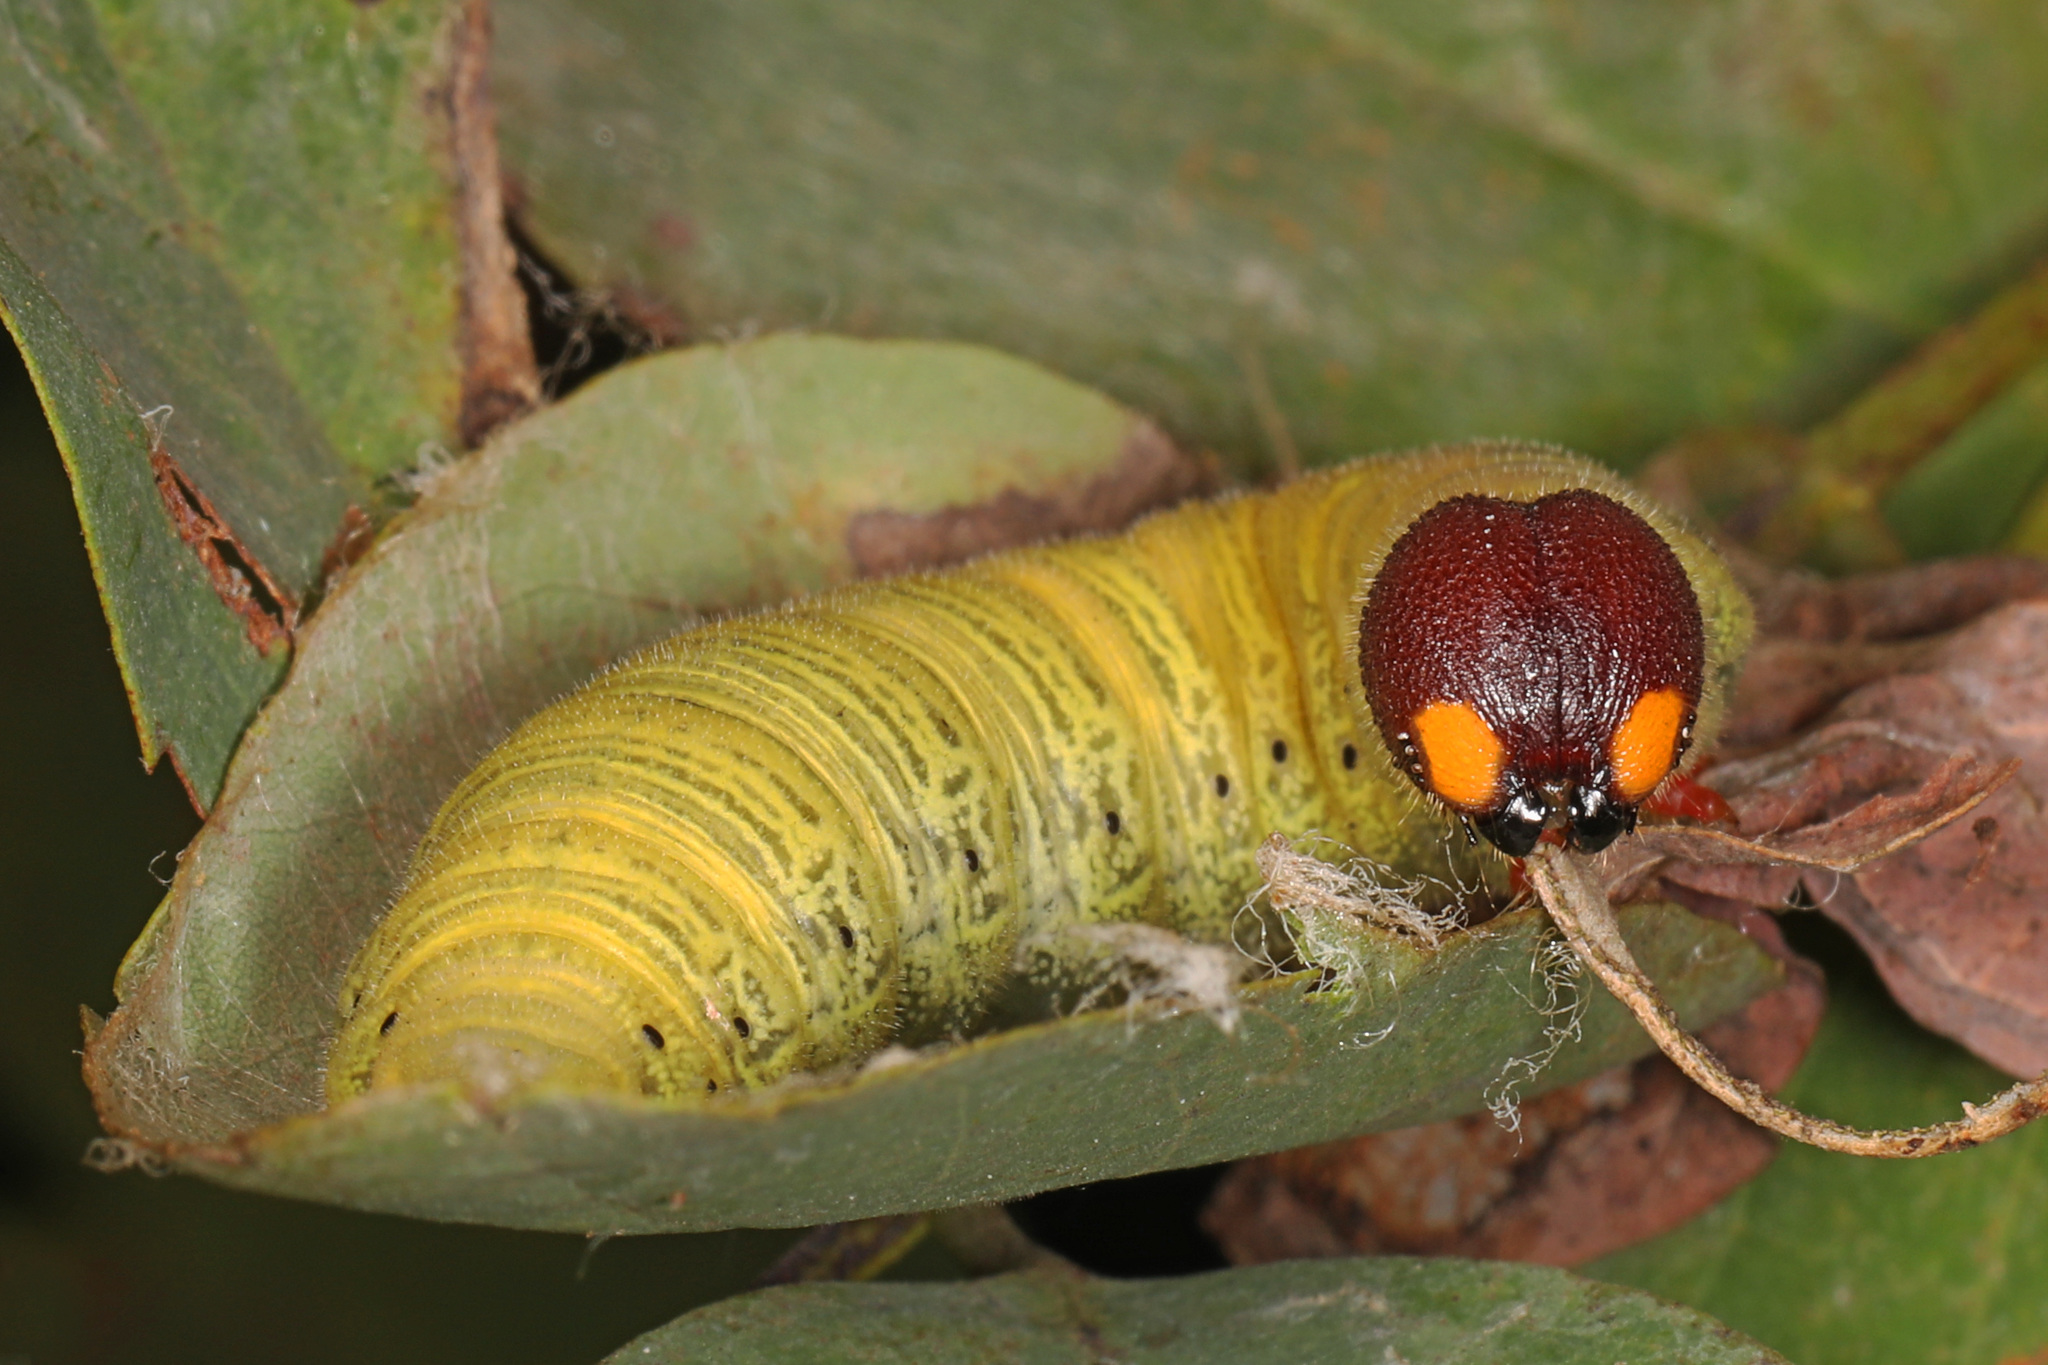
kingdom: Animalia
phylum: Arthropoda
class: Insecta
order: Lepidoptera
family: Hesperiidae
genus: Epargyreus
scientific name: Epargyreus clarus
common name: Silver-spotted skipper
